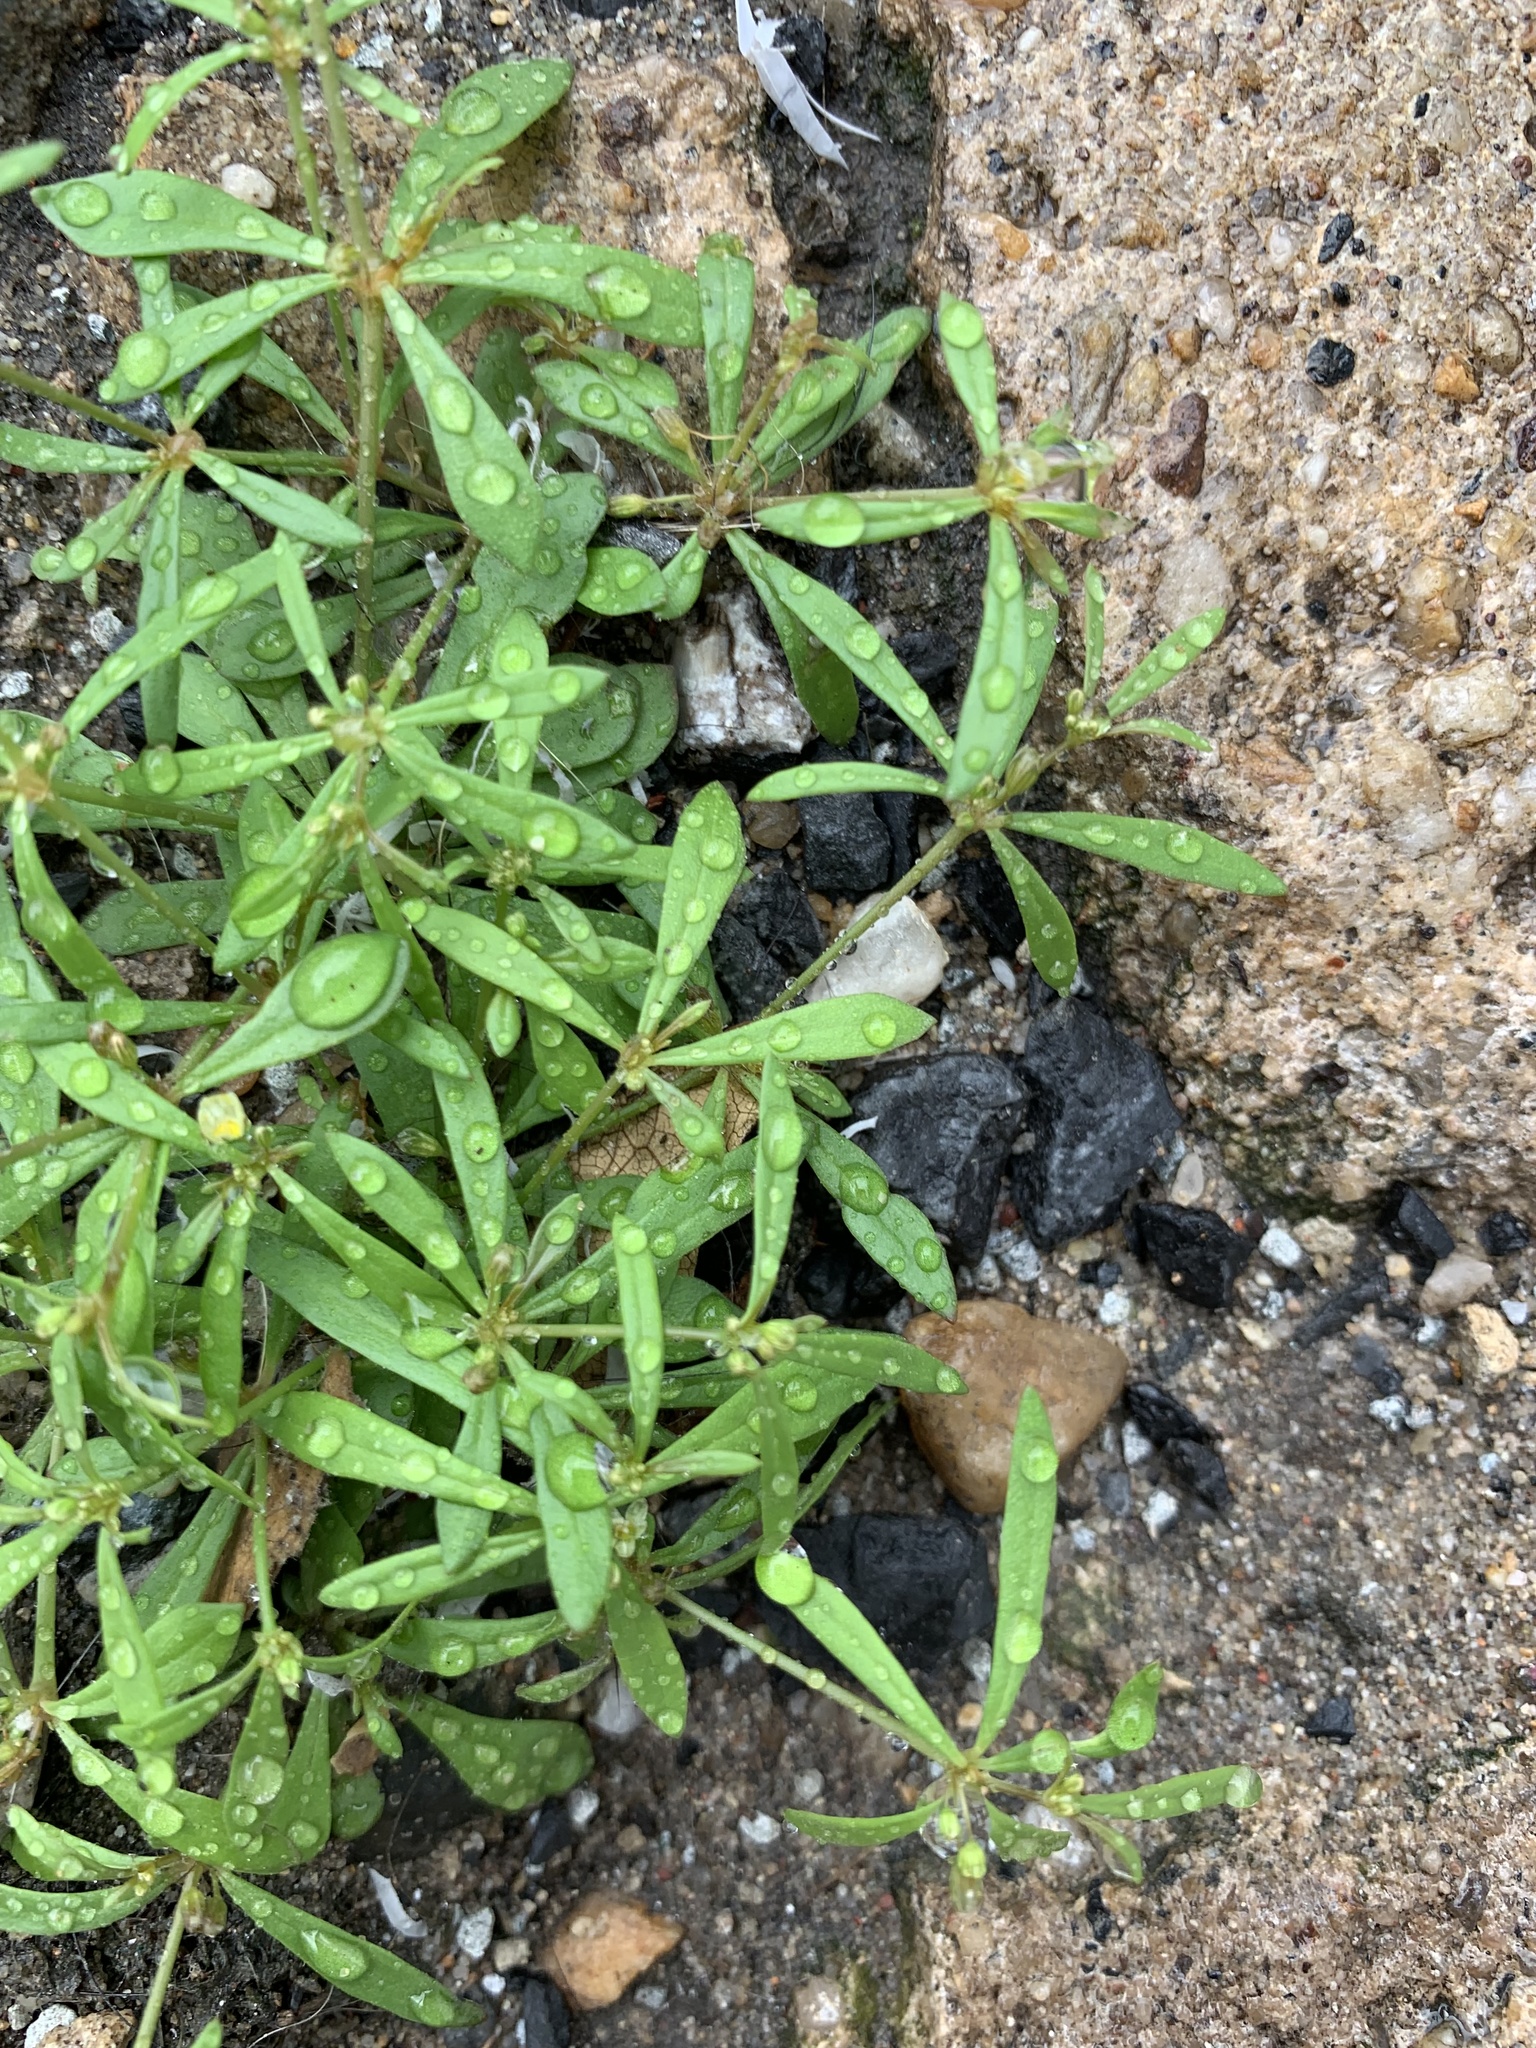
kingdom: Plantae
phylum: Tracheophyta
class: Magnoliopsida
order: Caryophyllales
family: Molluginaceae
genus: Mollugo
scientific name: Mollugo verticillata
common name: Green carpetweed
